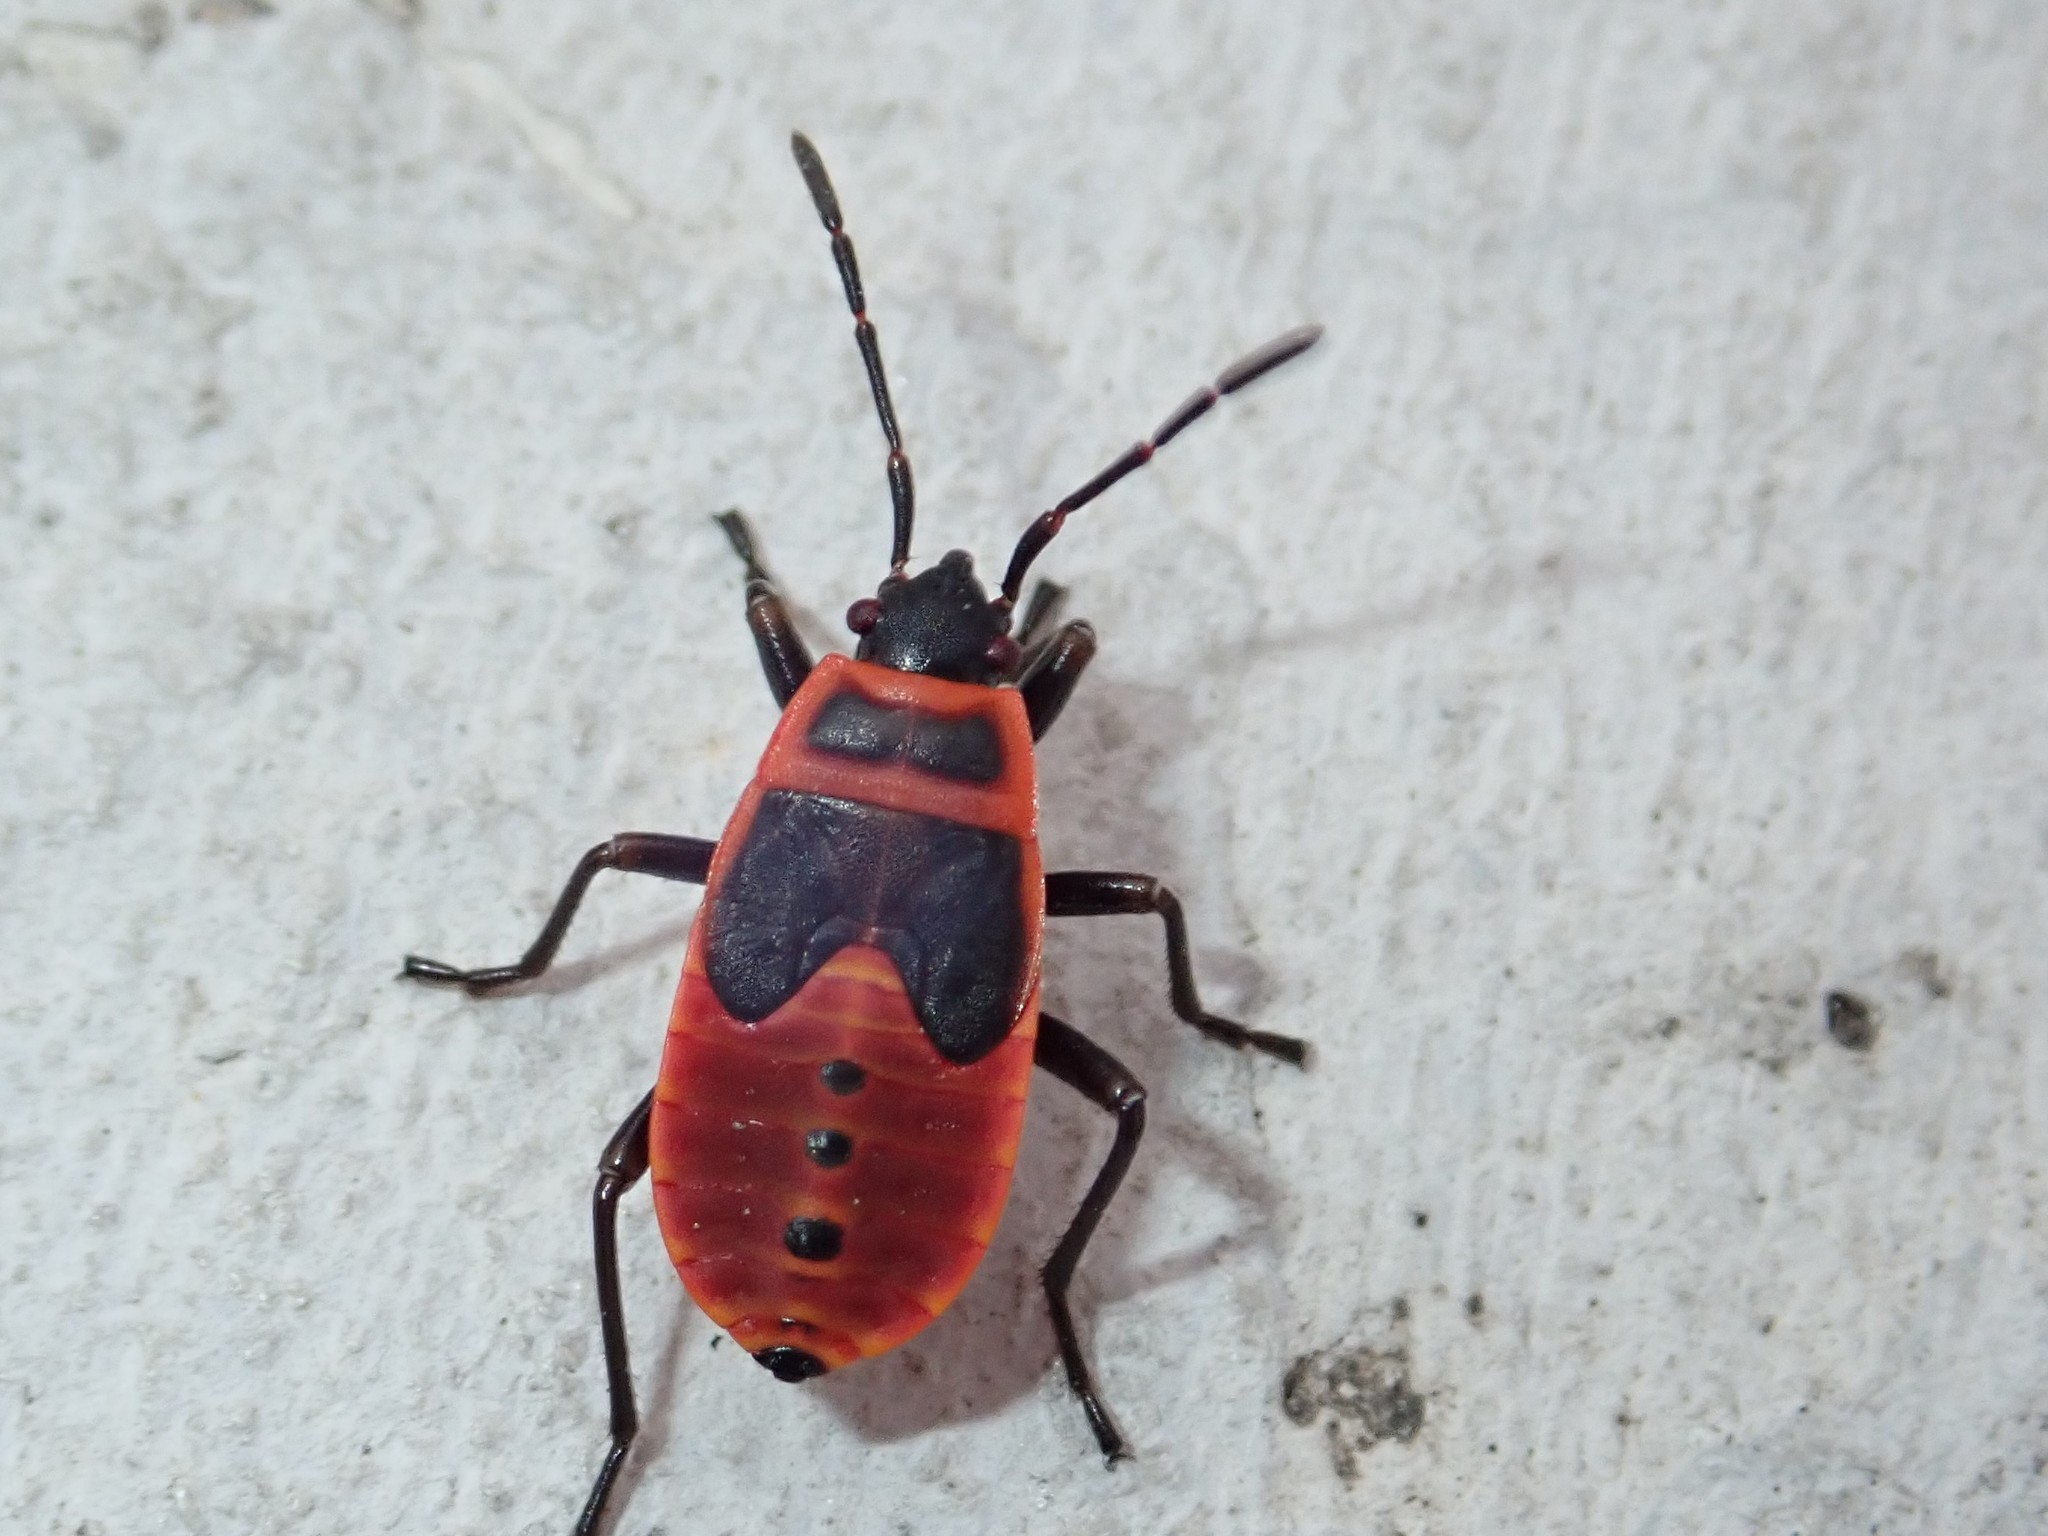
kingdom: Animalia
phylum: Arthropoda
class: Insecta
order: Hemiptera
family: Pyrrhocoridae
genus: Pyrrhocoris
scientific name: Pyrrhocoris apterus
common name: Firebug
